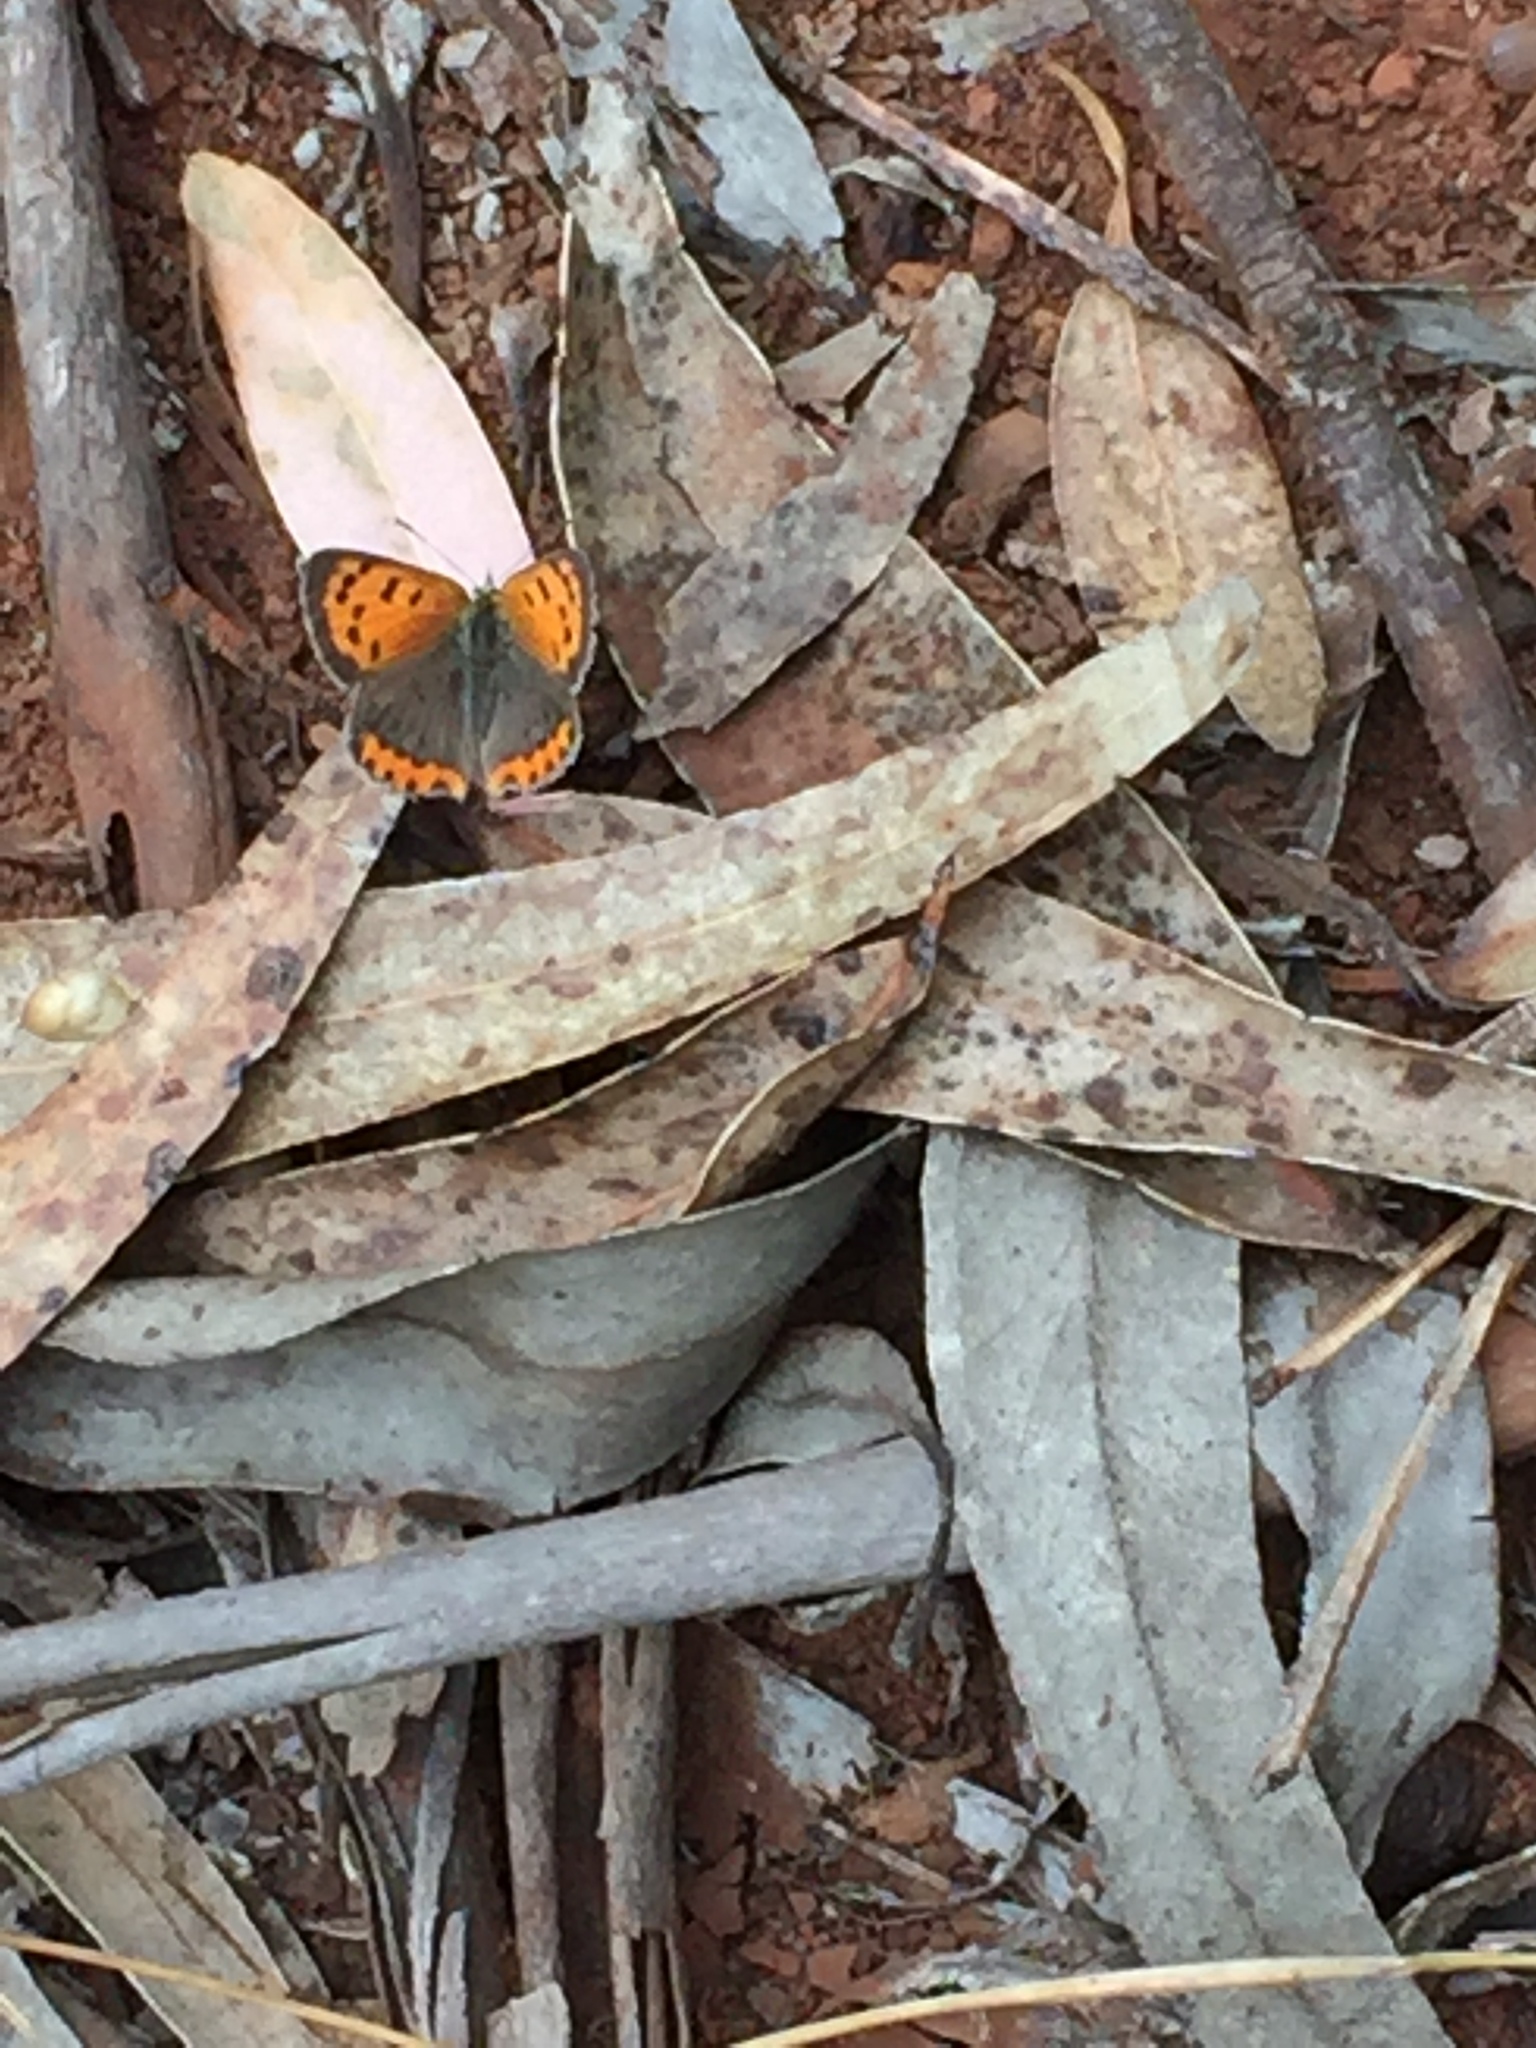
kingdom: Animalia
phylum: Arthropoda
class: Insecta
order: Lepidoptera
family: Lycaenidae
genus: Lycaena
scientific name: Lycaena phlaeas
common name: Small copper
